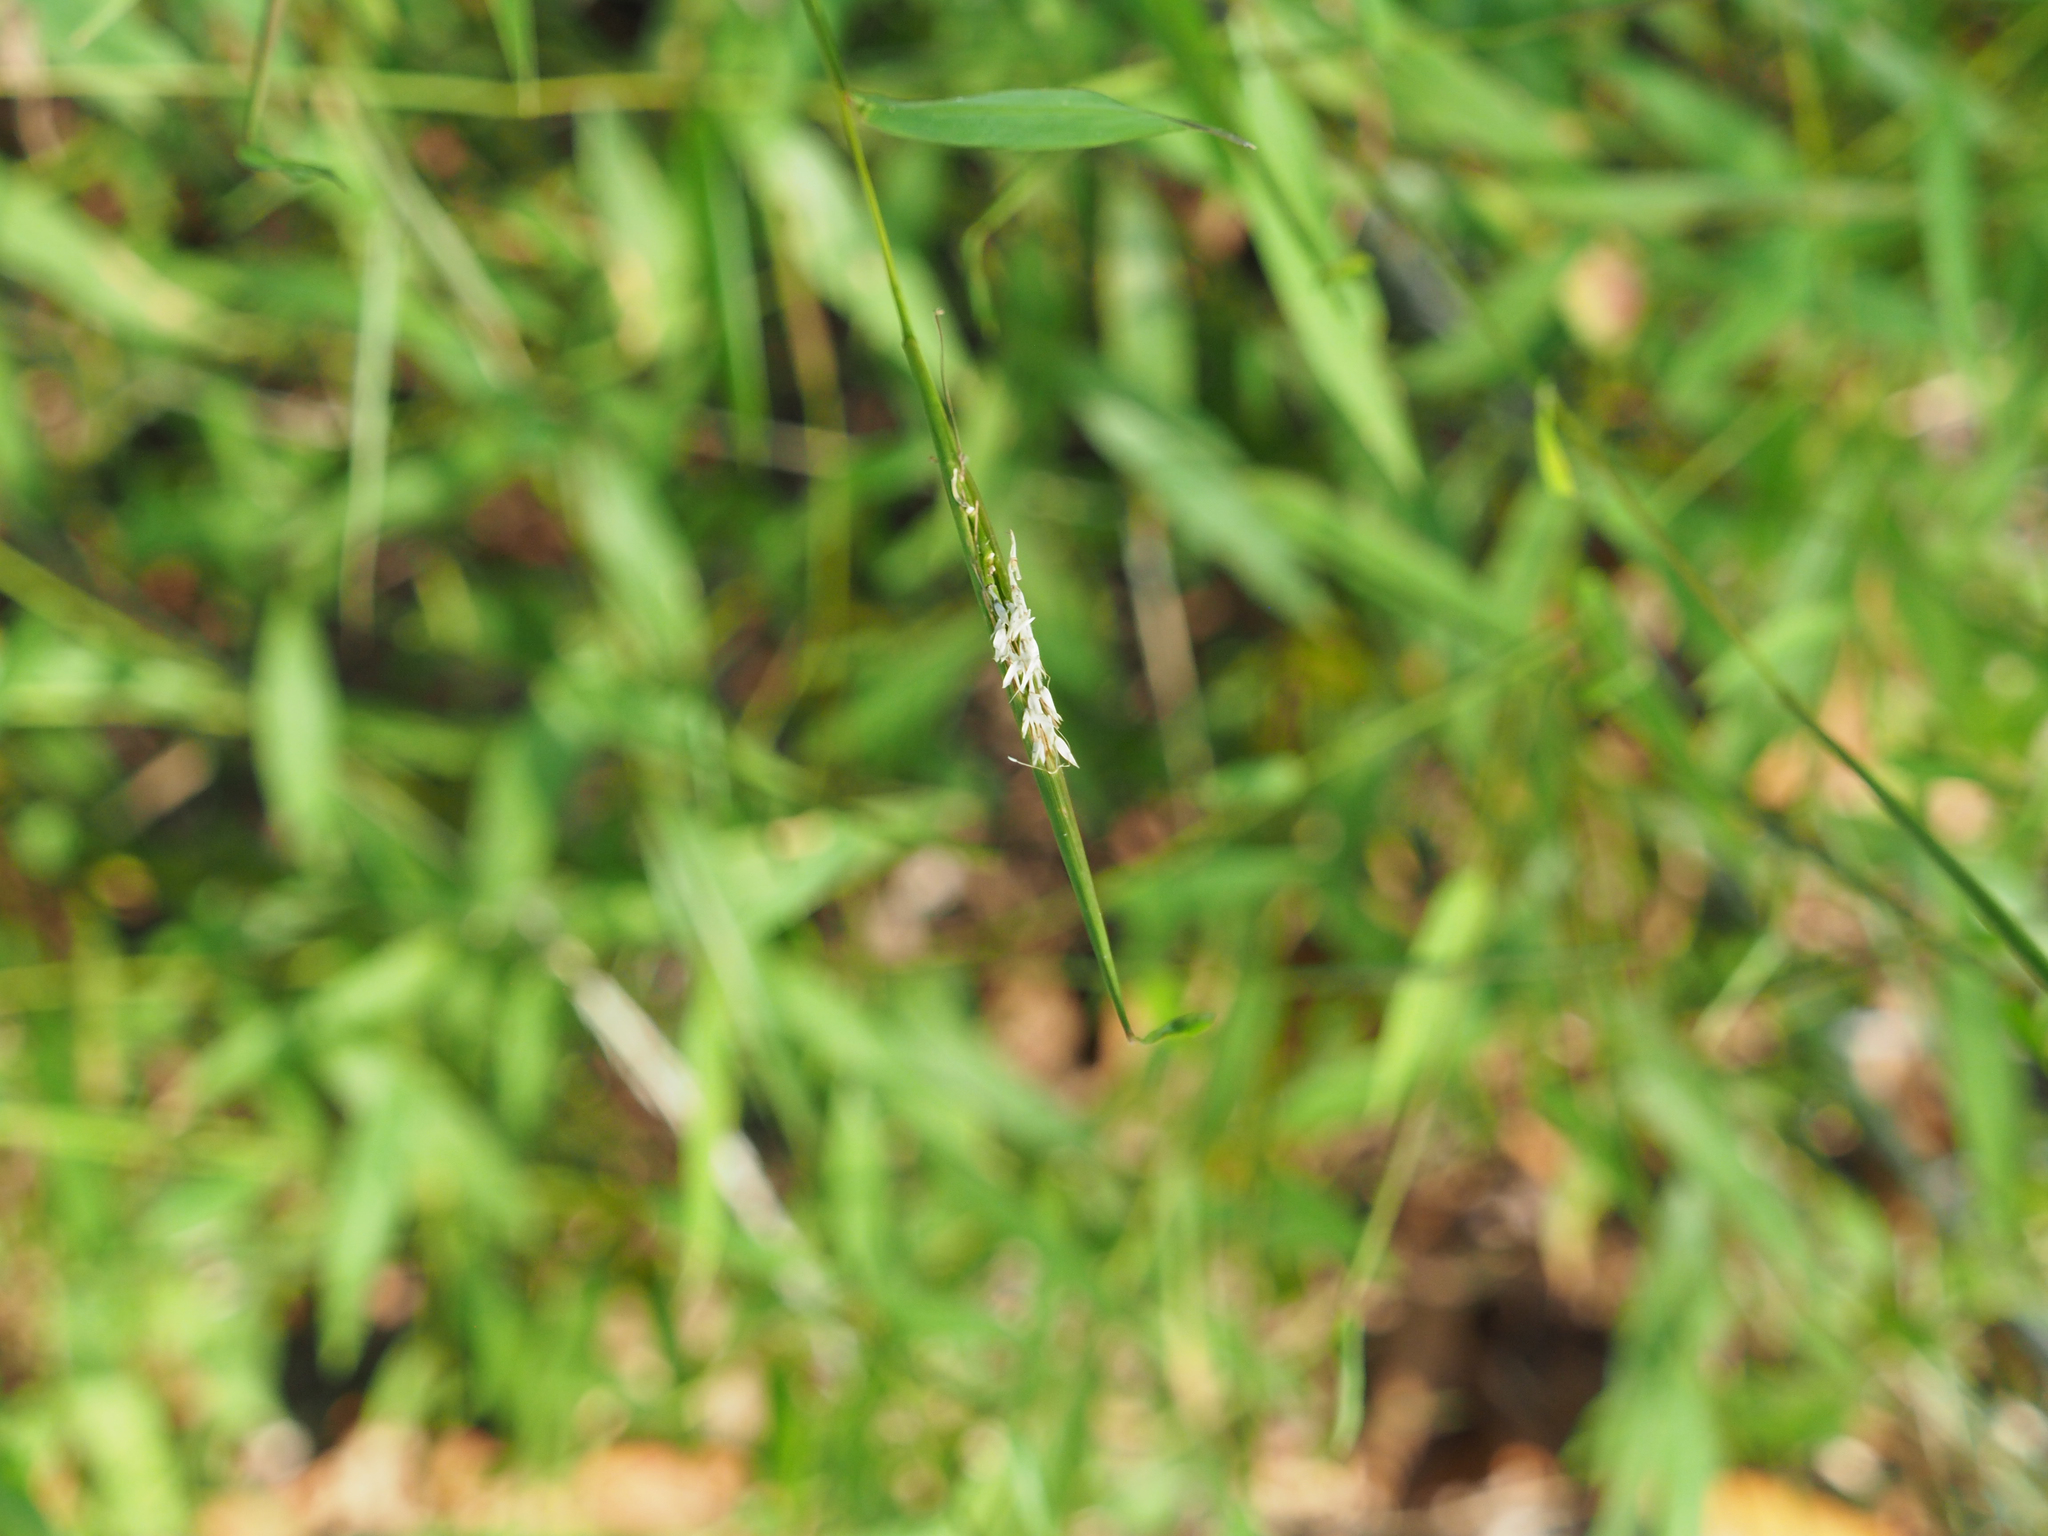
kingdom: Plantae
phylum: Tracheophyta
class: Liliopsida
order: Poales
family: Poaceae
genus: Microstegium
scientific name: Microstegium vimineum
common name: Japanese stiltgrass
